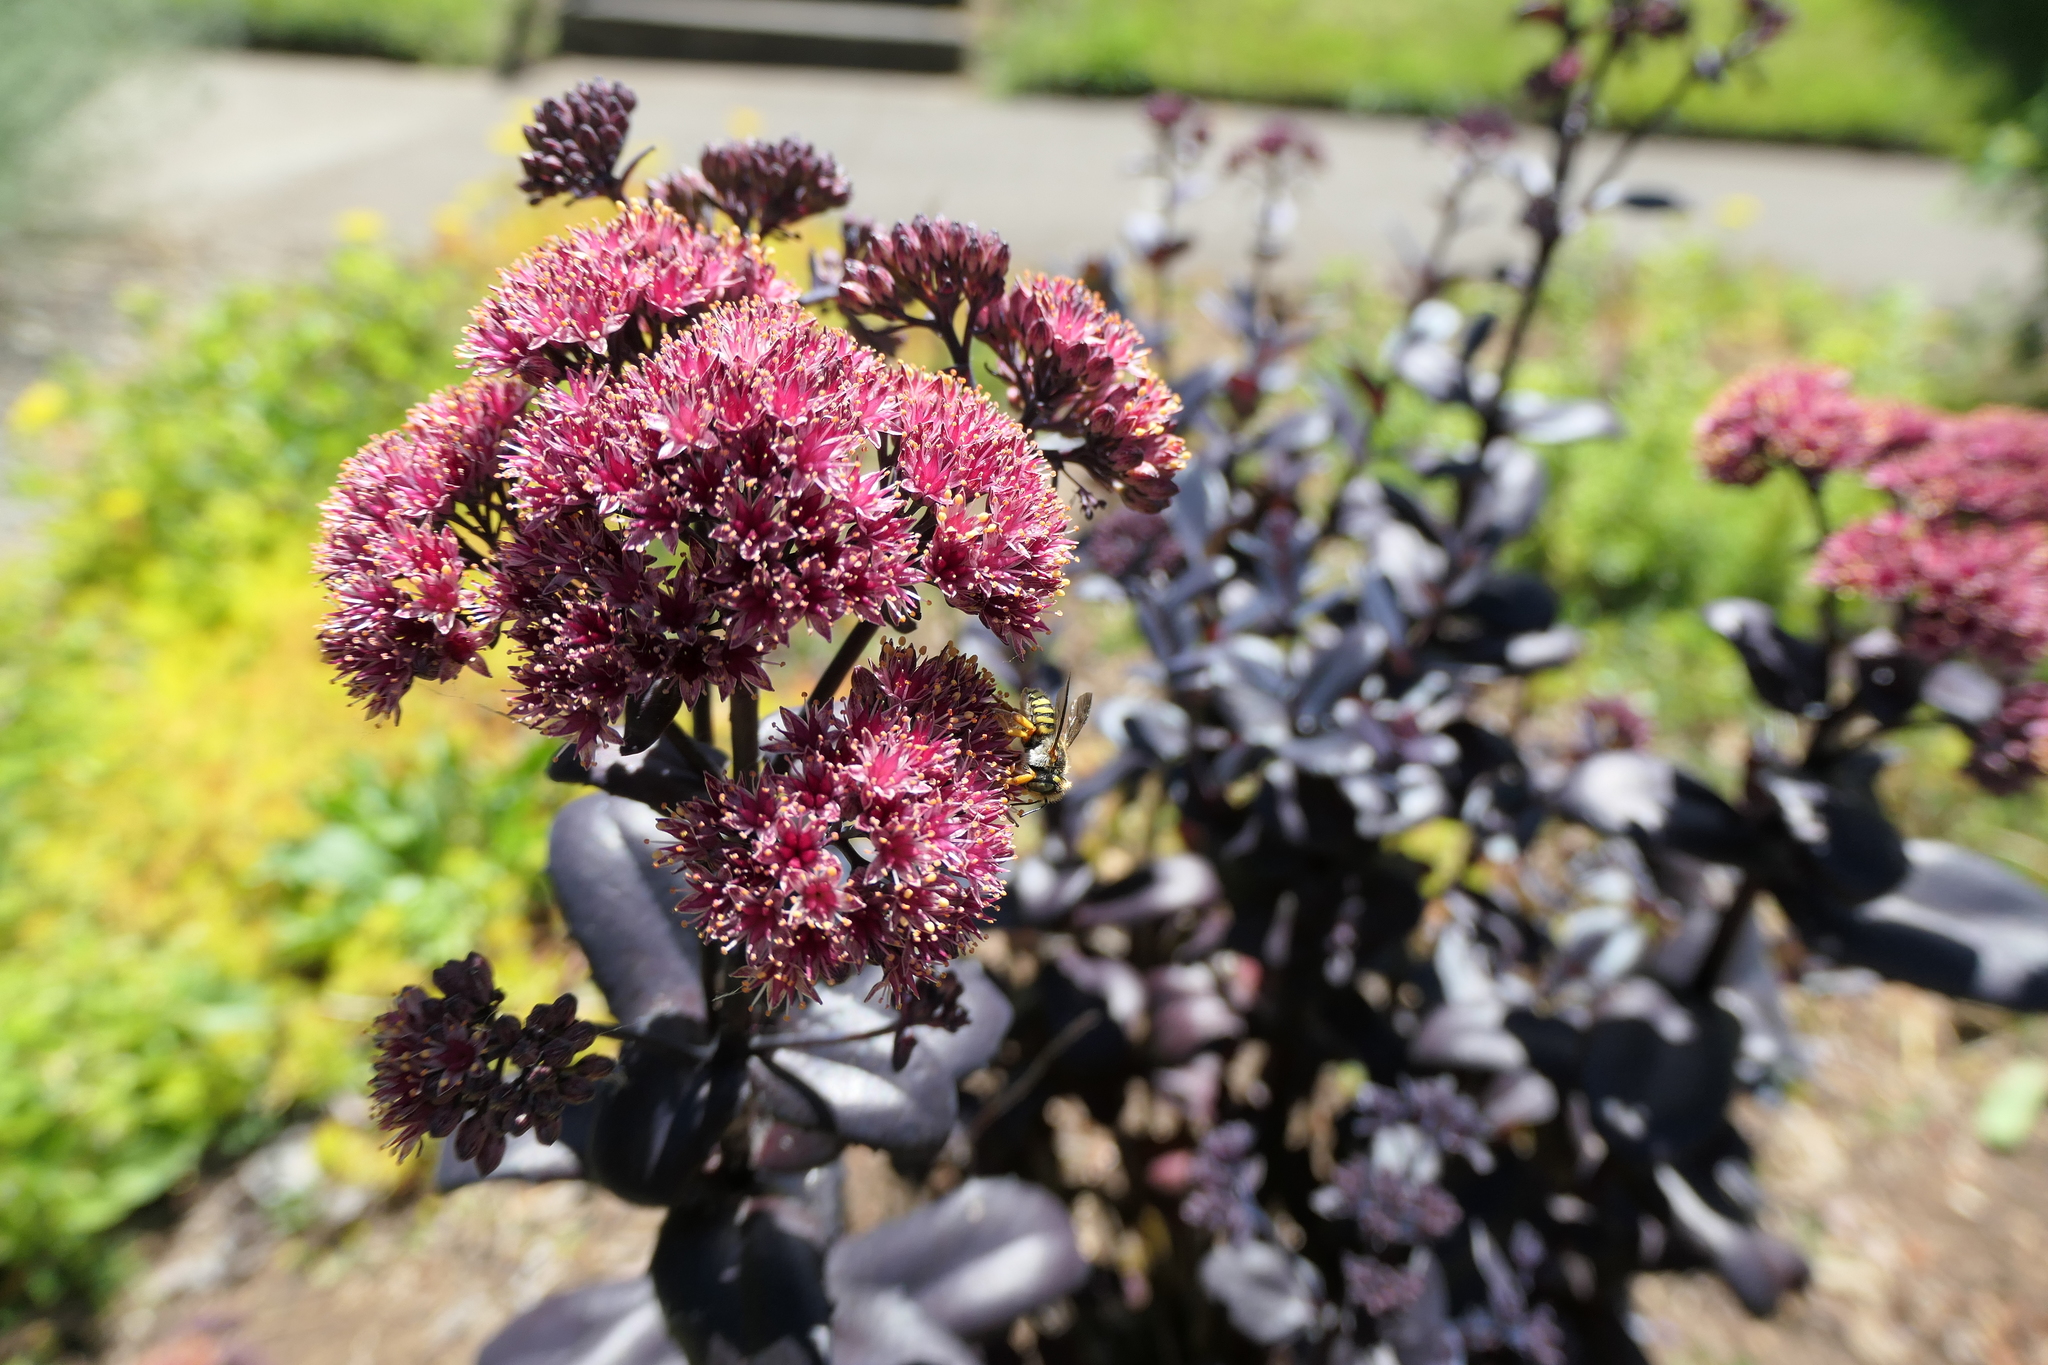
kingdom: Animalia
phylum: Arthropoda
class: Insecta
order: Hymenoptera
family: Megachilidae
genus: Anthidium
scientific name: Anthidium oblongatum
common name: Oblong wool carder bee
